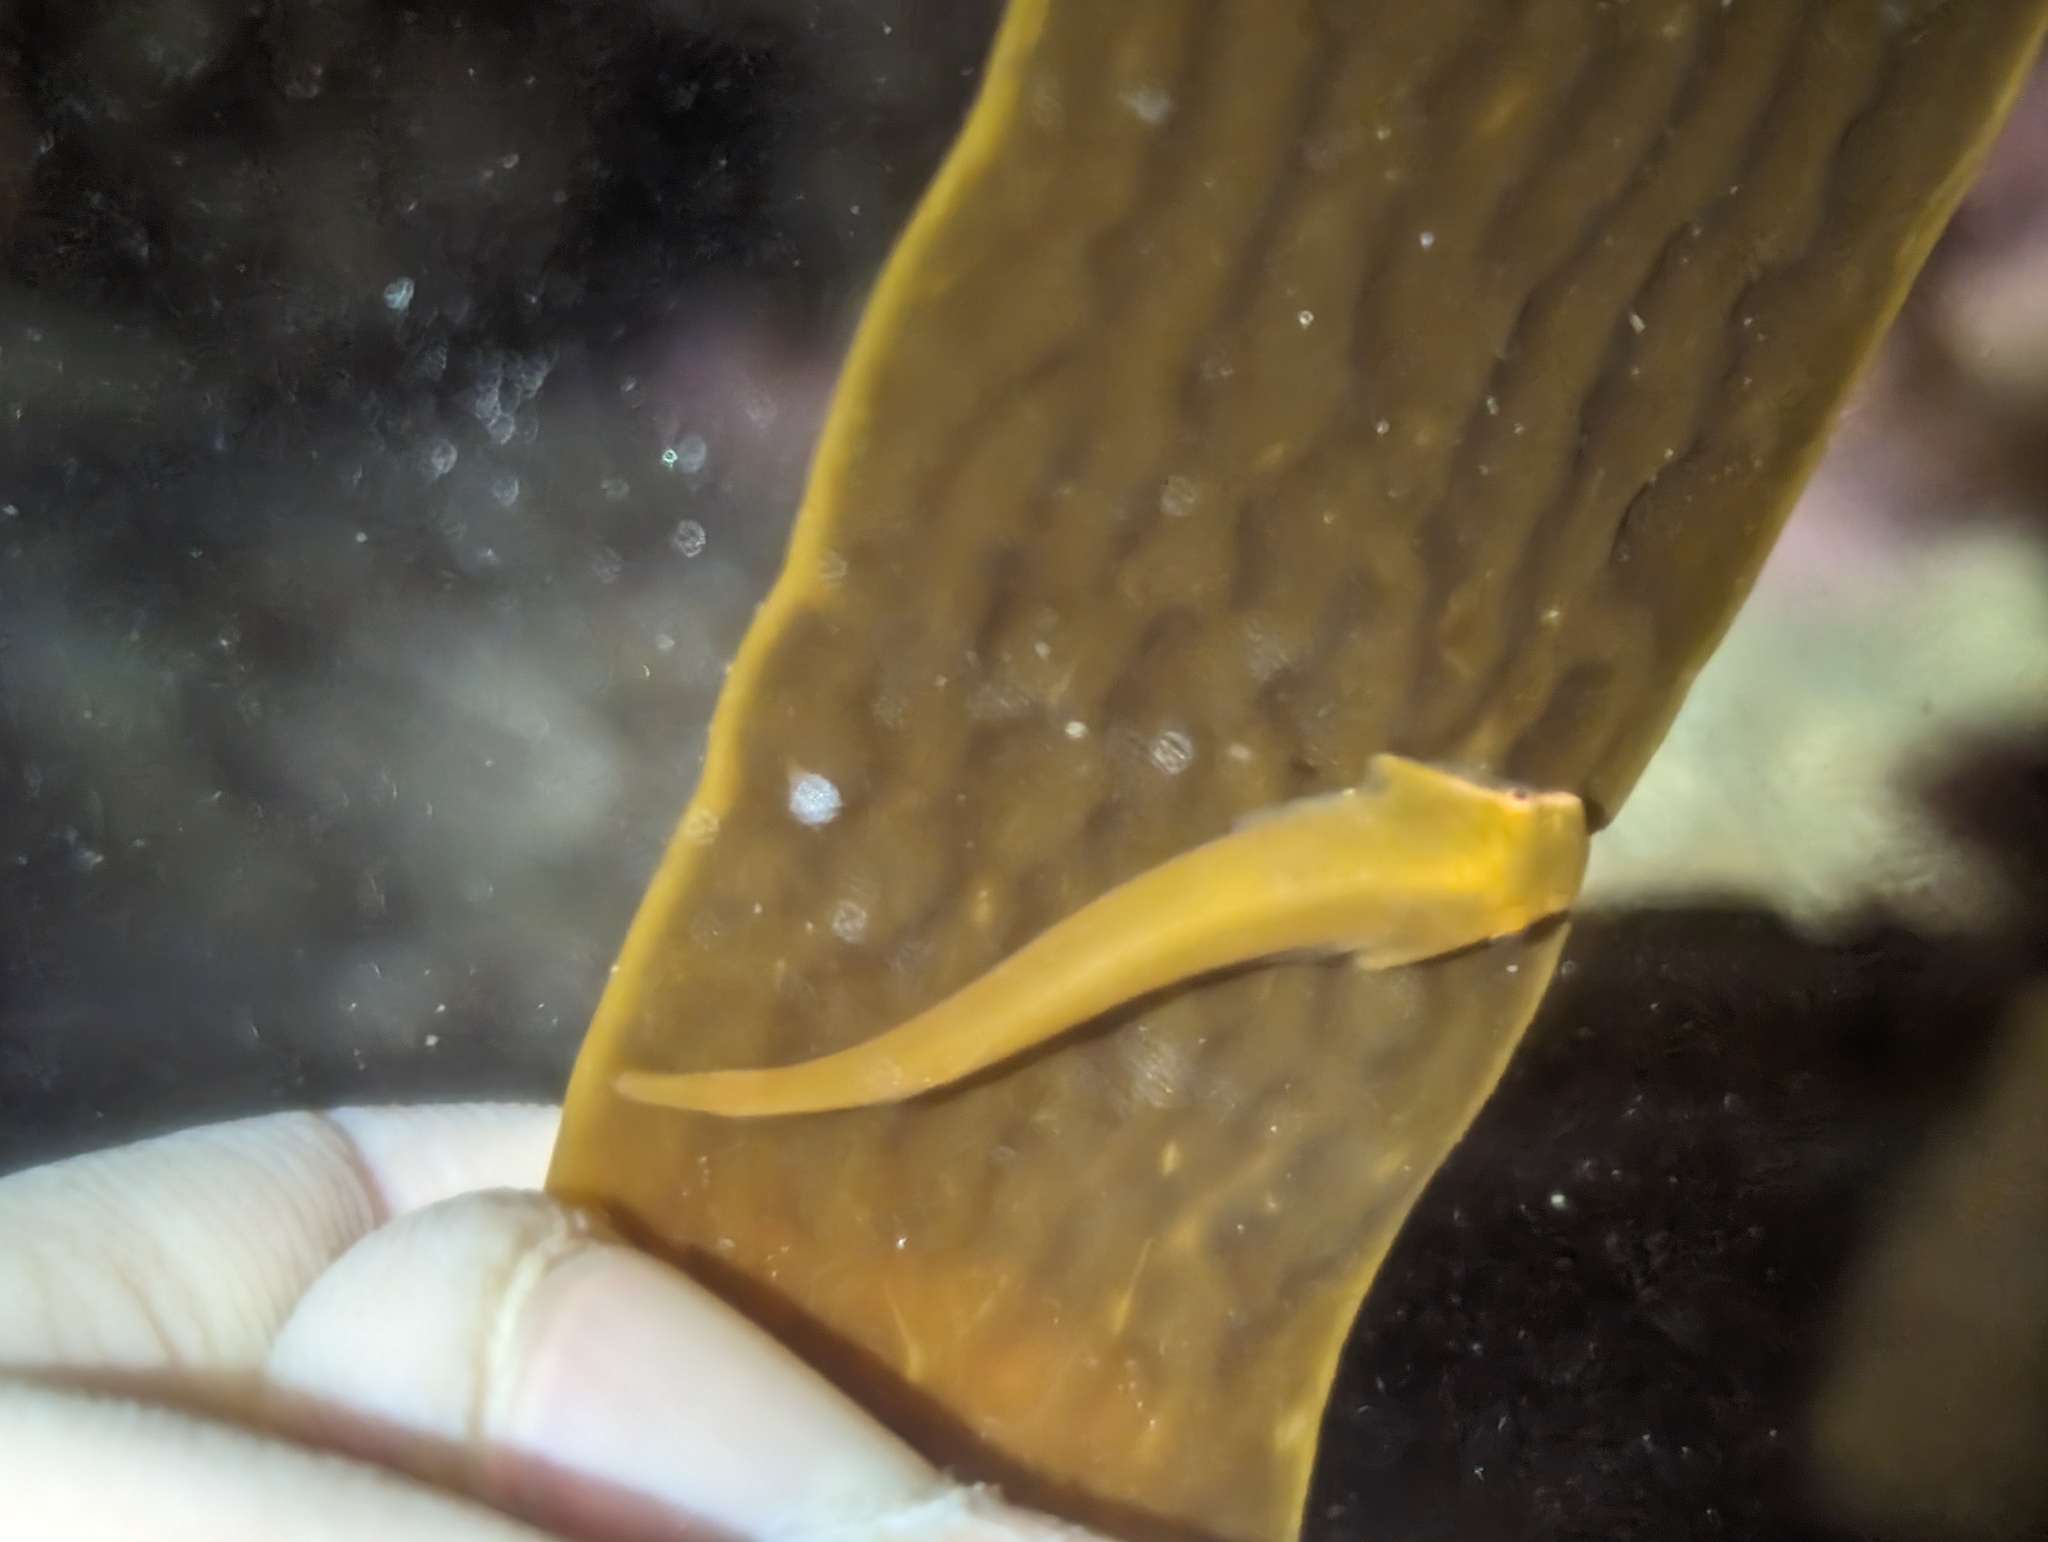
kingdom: Animalia
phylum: Chordata
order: Gobiesociformes
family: Gobiesocidae
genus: Rimicola
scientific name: Rimicola eigenmanni
